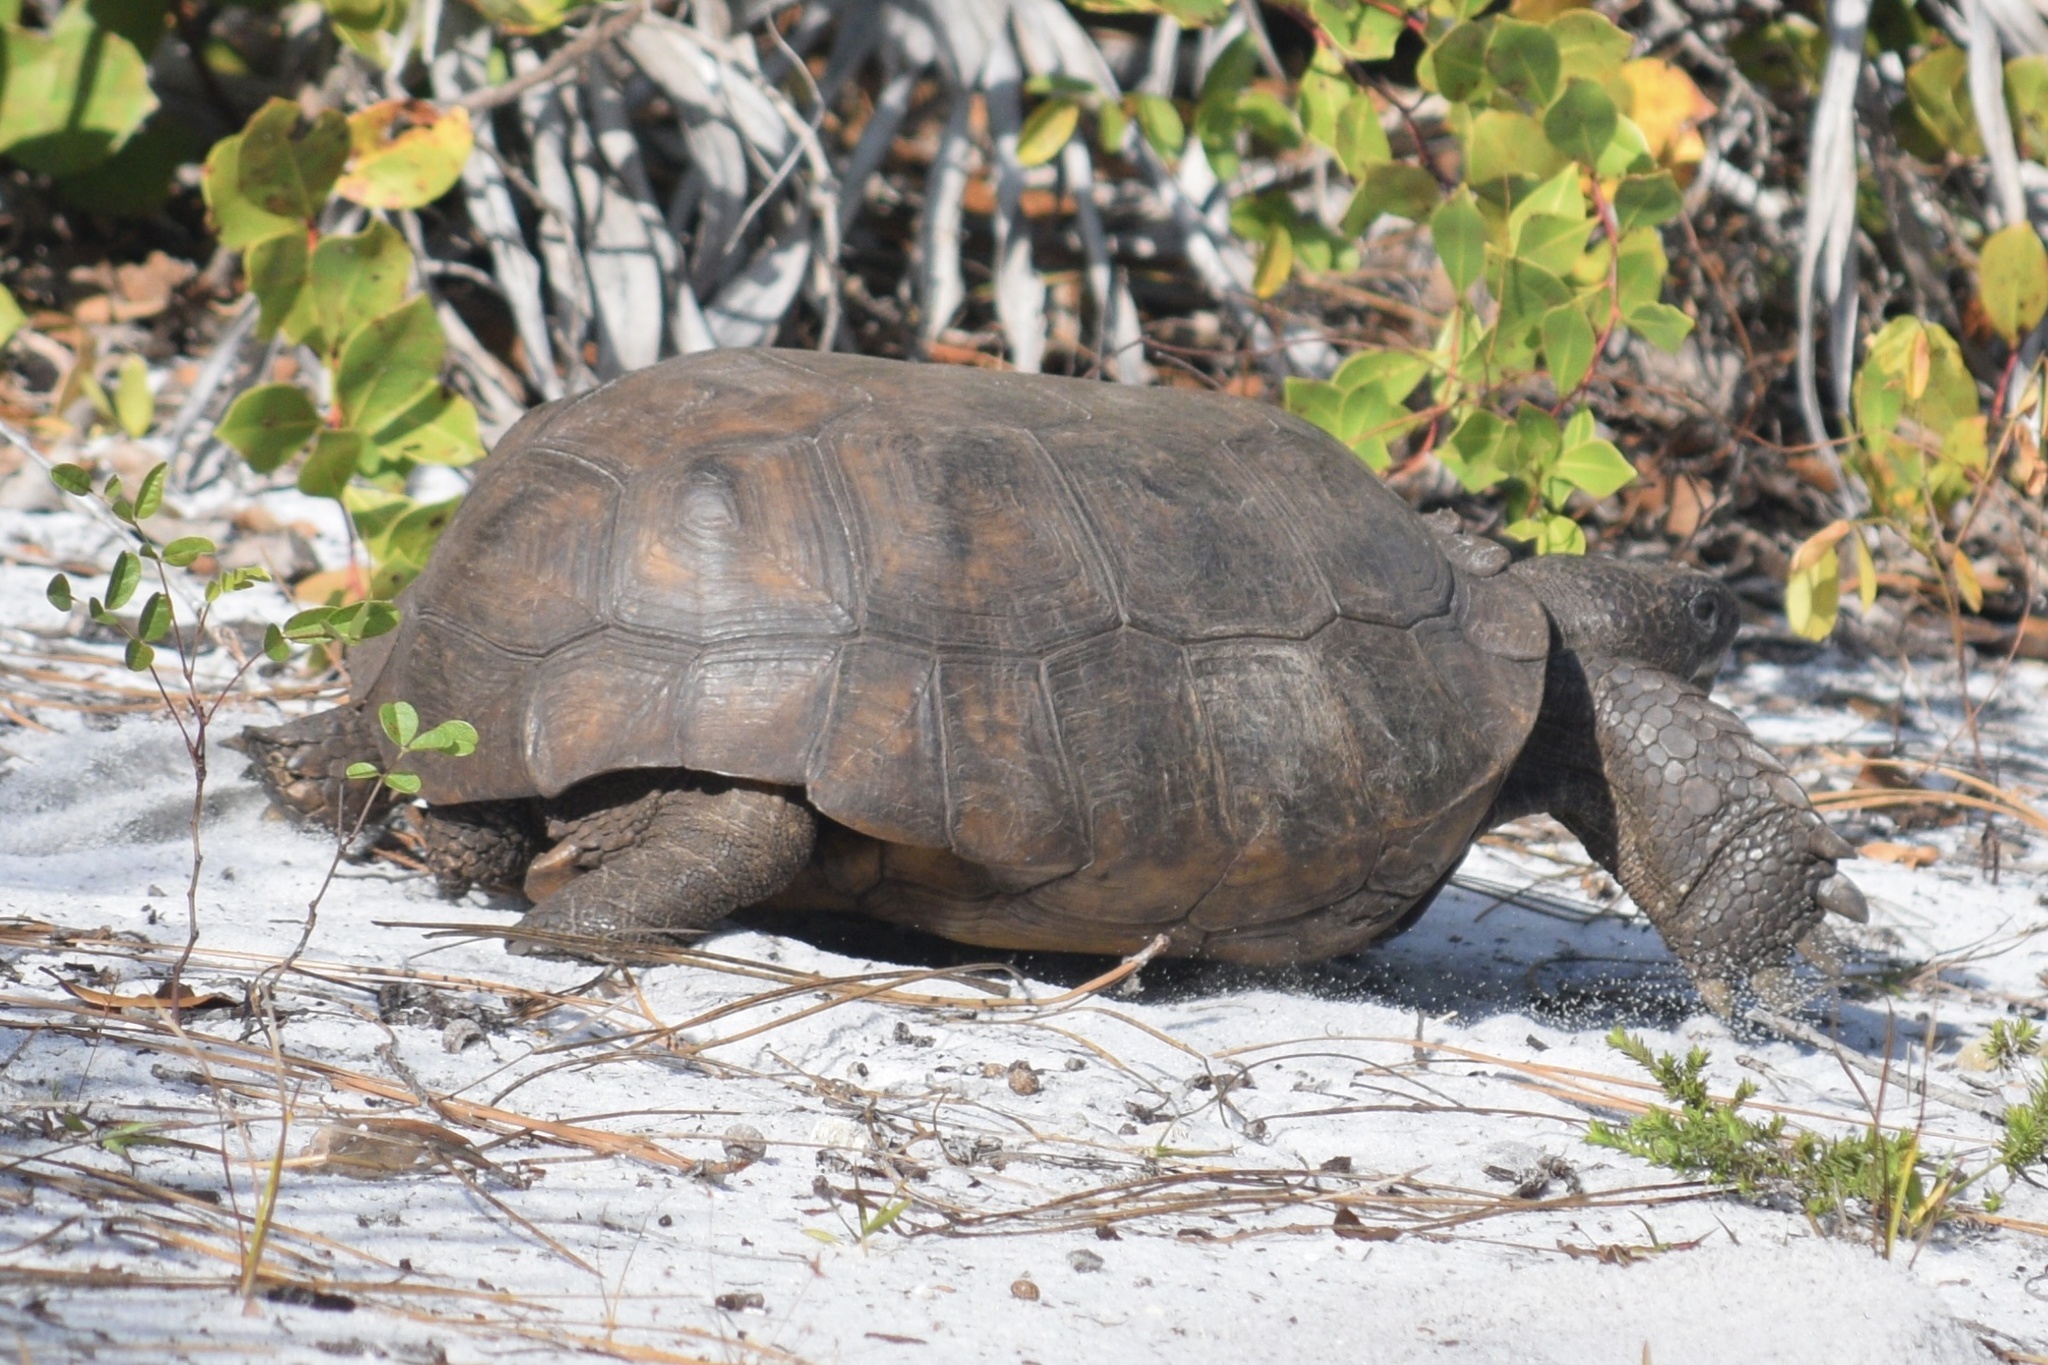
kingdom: Animalia
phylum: Chordata
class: Testudines
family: Testudinidae
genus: Gopherus
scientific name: Gopherus polyphemus
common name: Florida gopher tortoise
